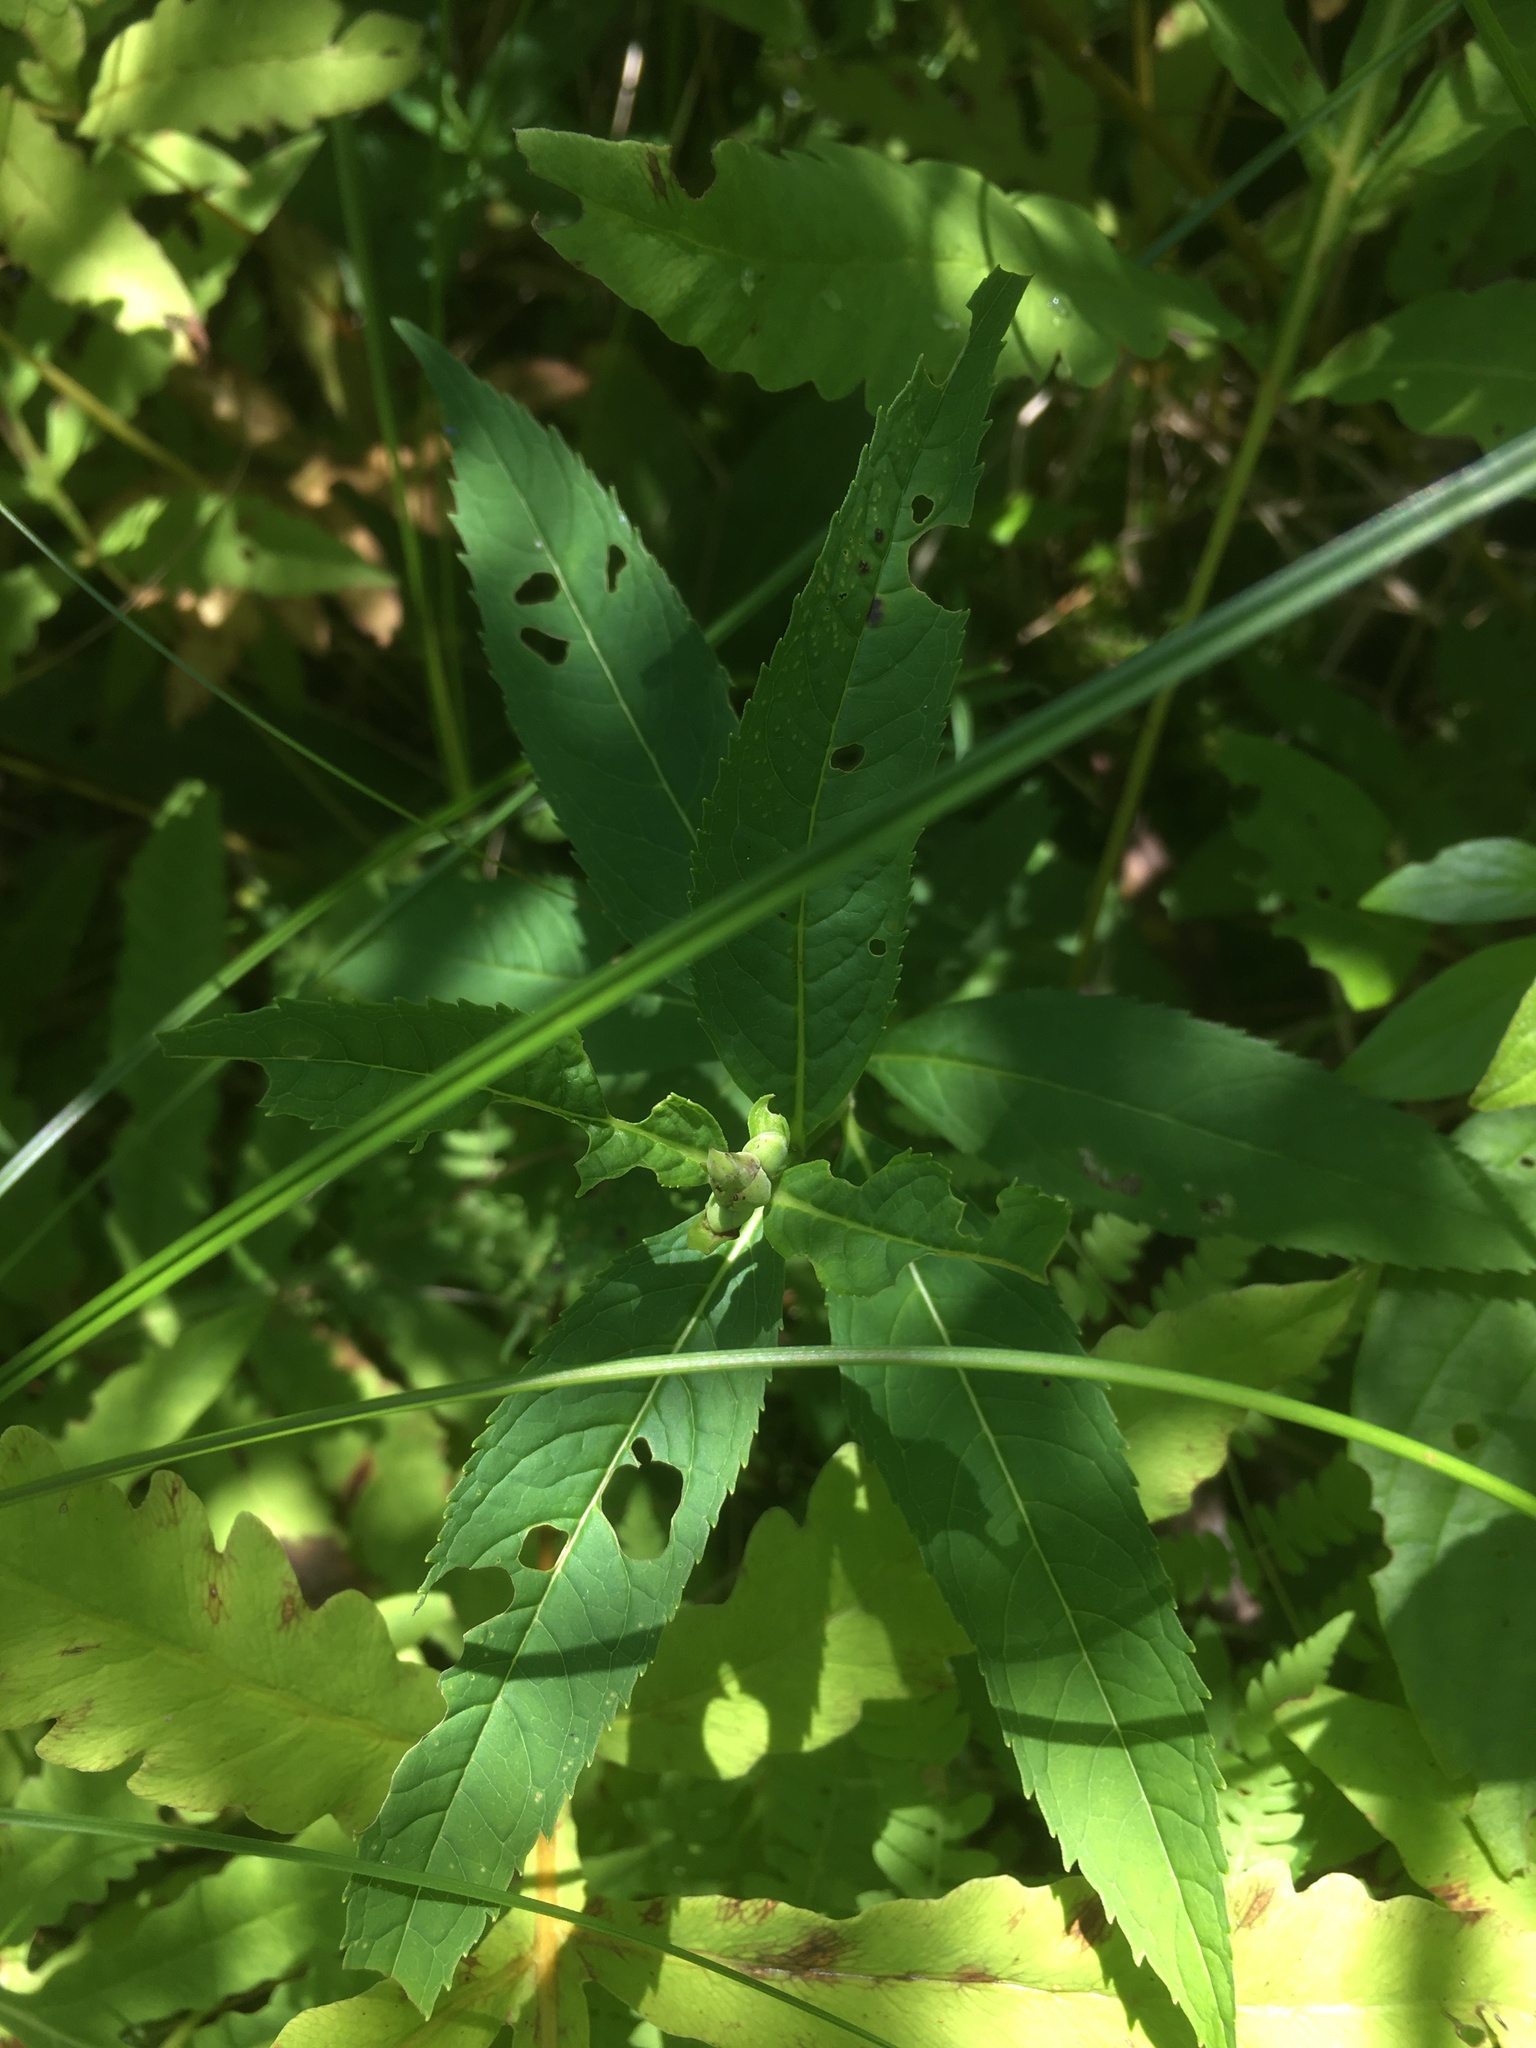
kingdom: Plantae
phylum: Tracheophyta
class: Magnoliopsida
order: Lamiales
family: Plantaginaceae
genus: Chelone
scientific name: Chelone glabra
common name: Snakehead
